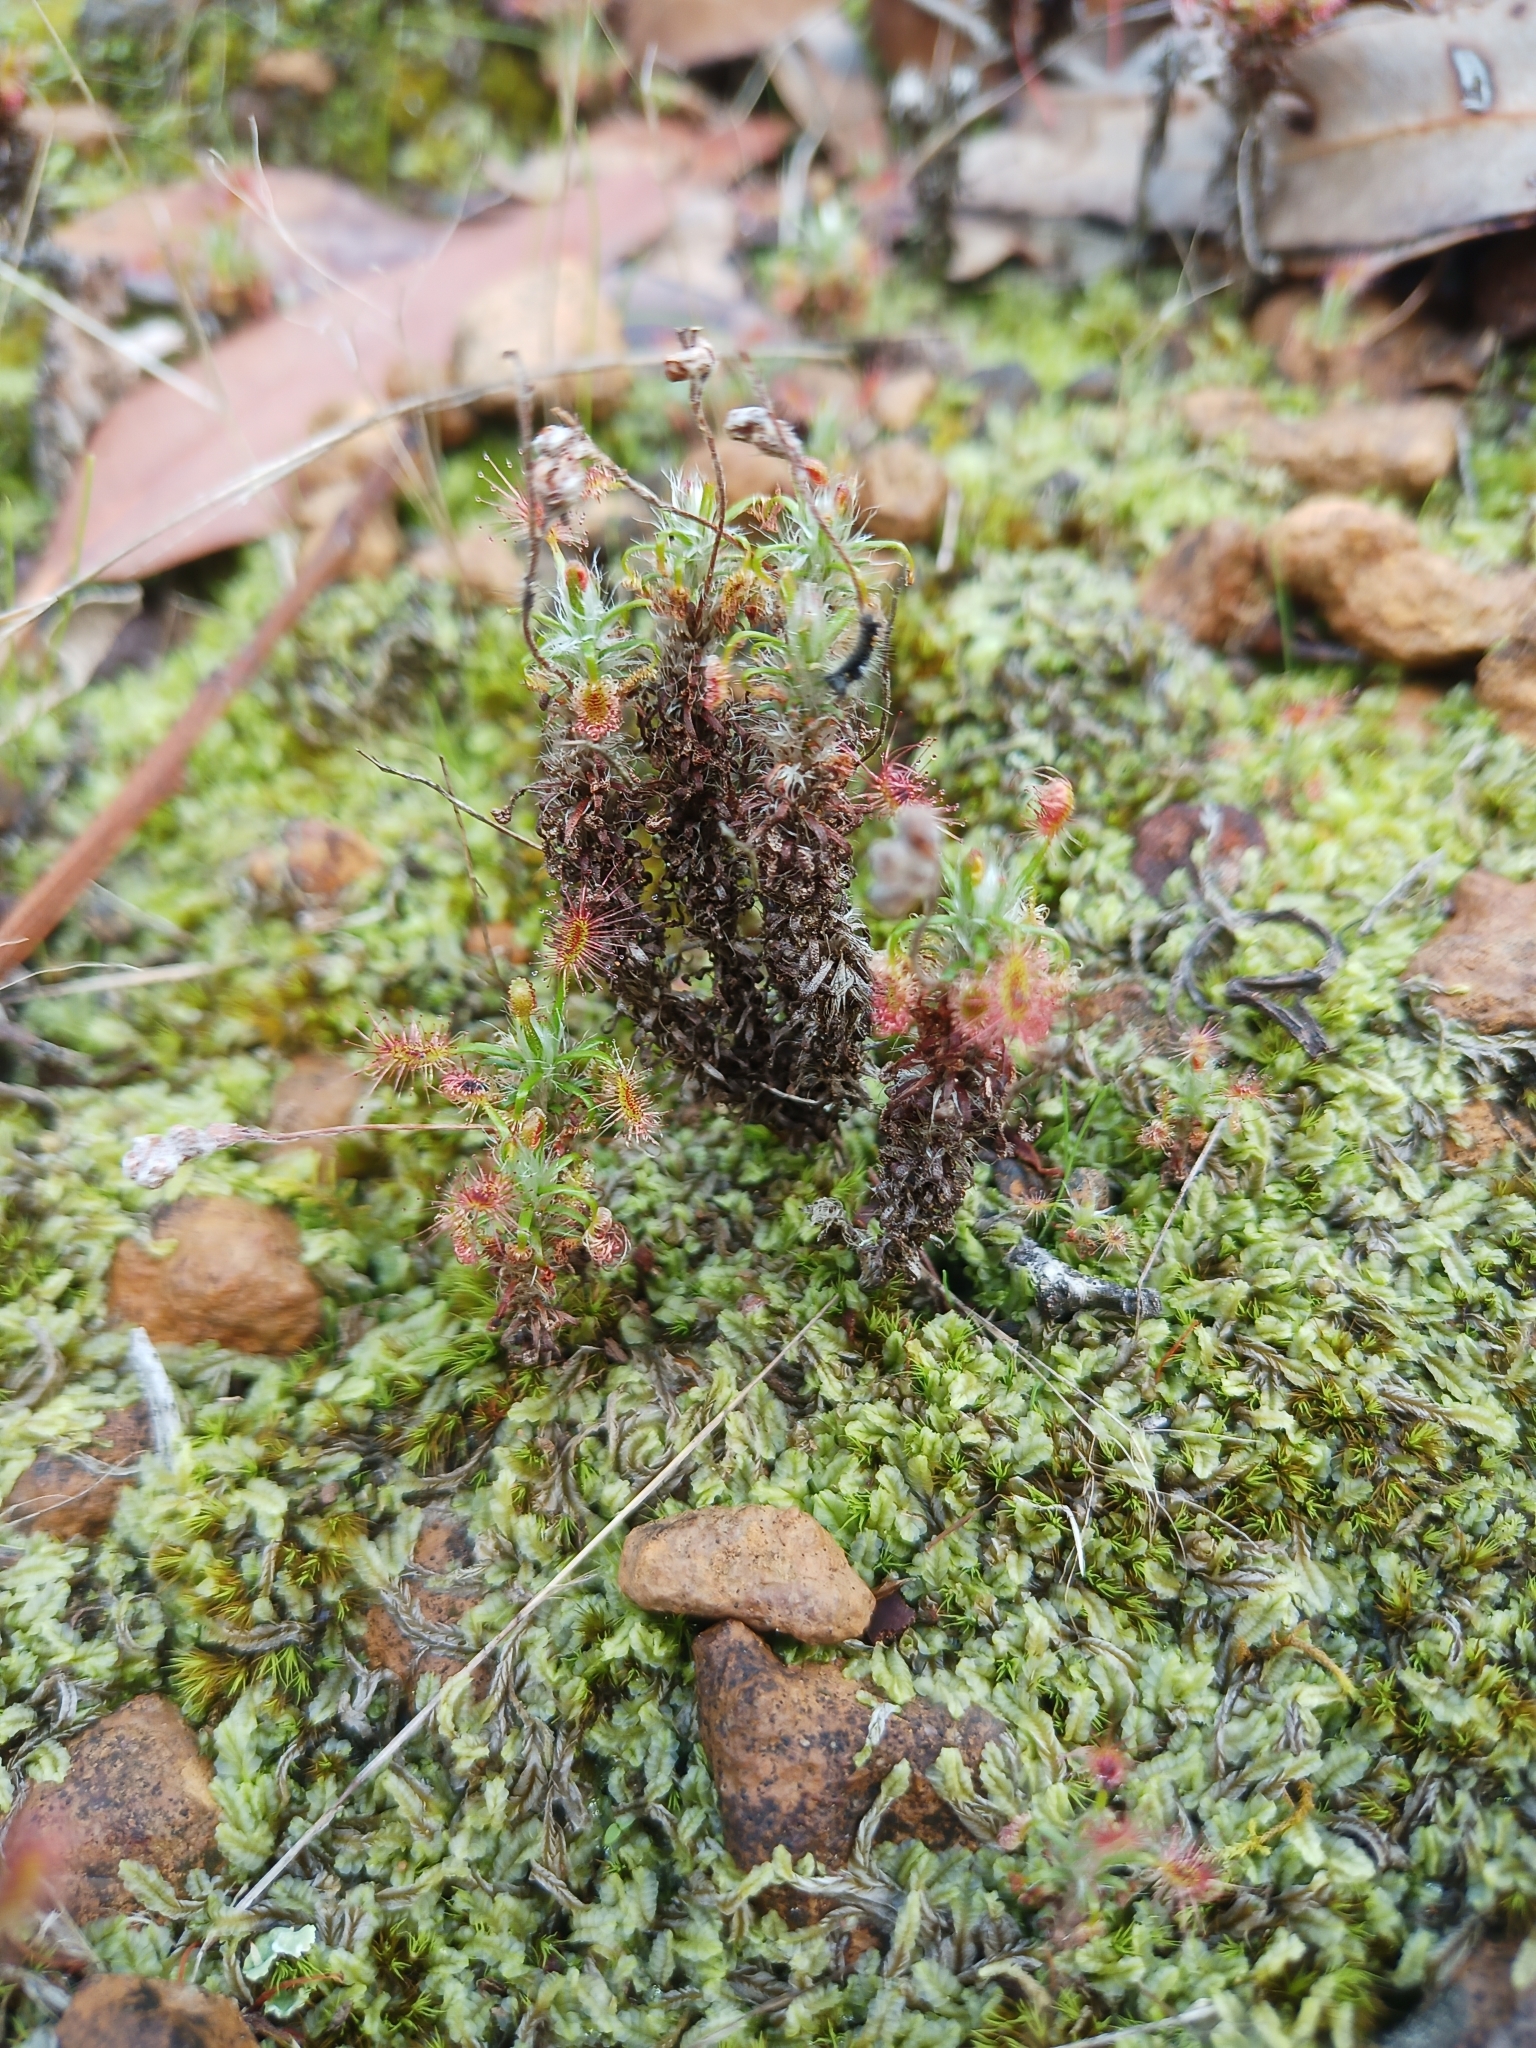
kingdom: Plantae
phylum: Tracheophyta
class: Magnoliopsida
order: Caryophyllales
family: Droseraceae
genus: Drosera
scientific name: Drosera lasiantha
